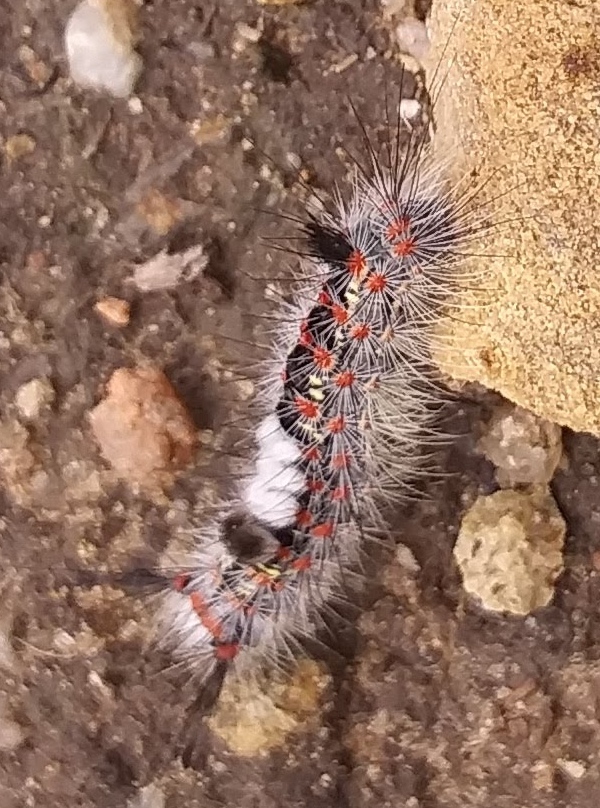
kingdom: Animalia
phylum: Arthropoda
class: Insecta
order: Lepidoptera
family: Erebidae
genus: Orgyia
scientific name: Orgyia
